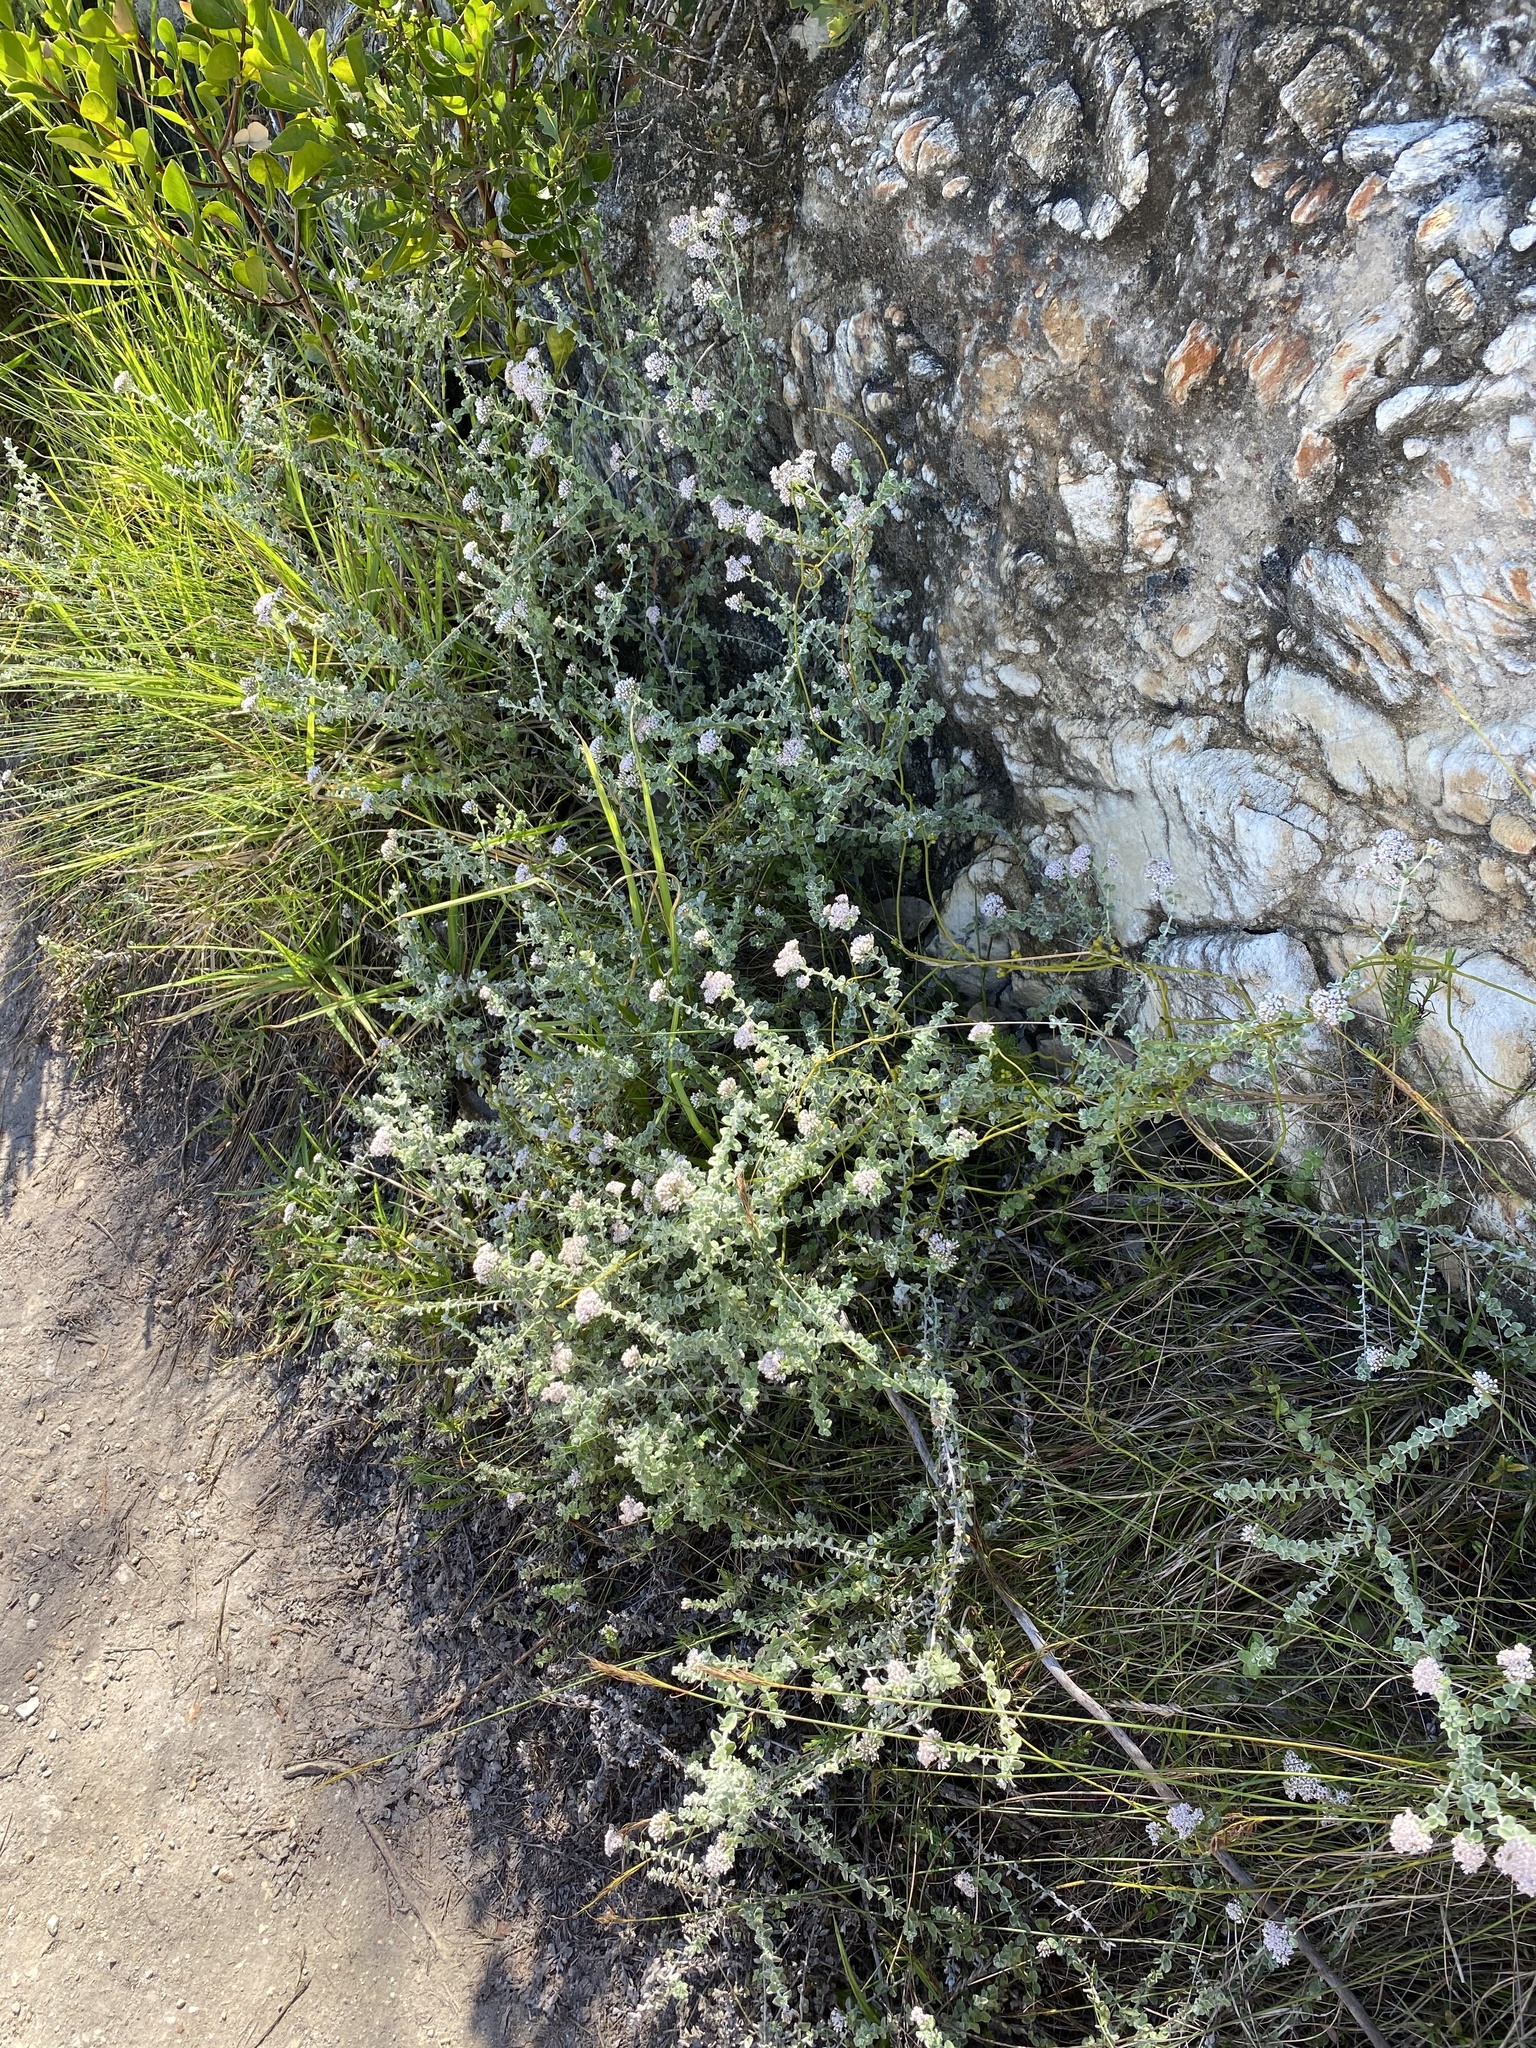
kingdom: Plantae
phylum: Tracheophyta
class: Magnoliopsida
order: Asterales
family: Asteraceae
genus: Plecostachys
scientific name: Plecostachys serpyllifolia
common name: Petite licorice
